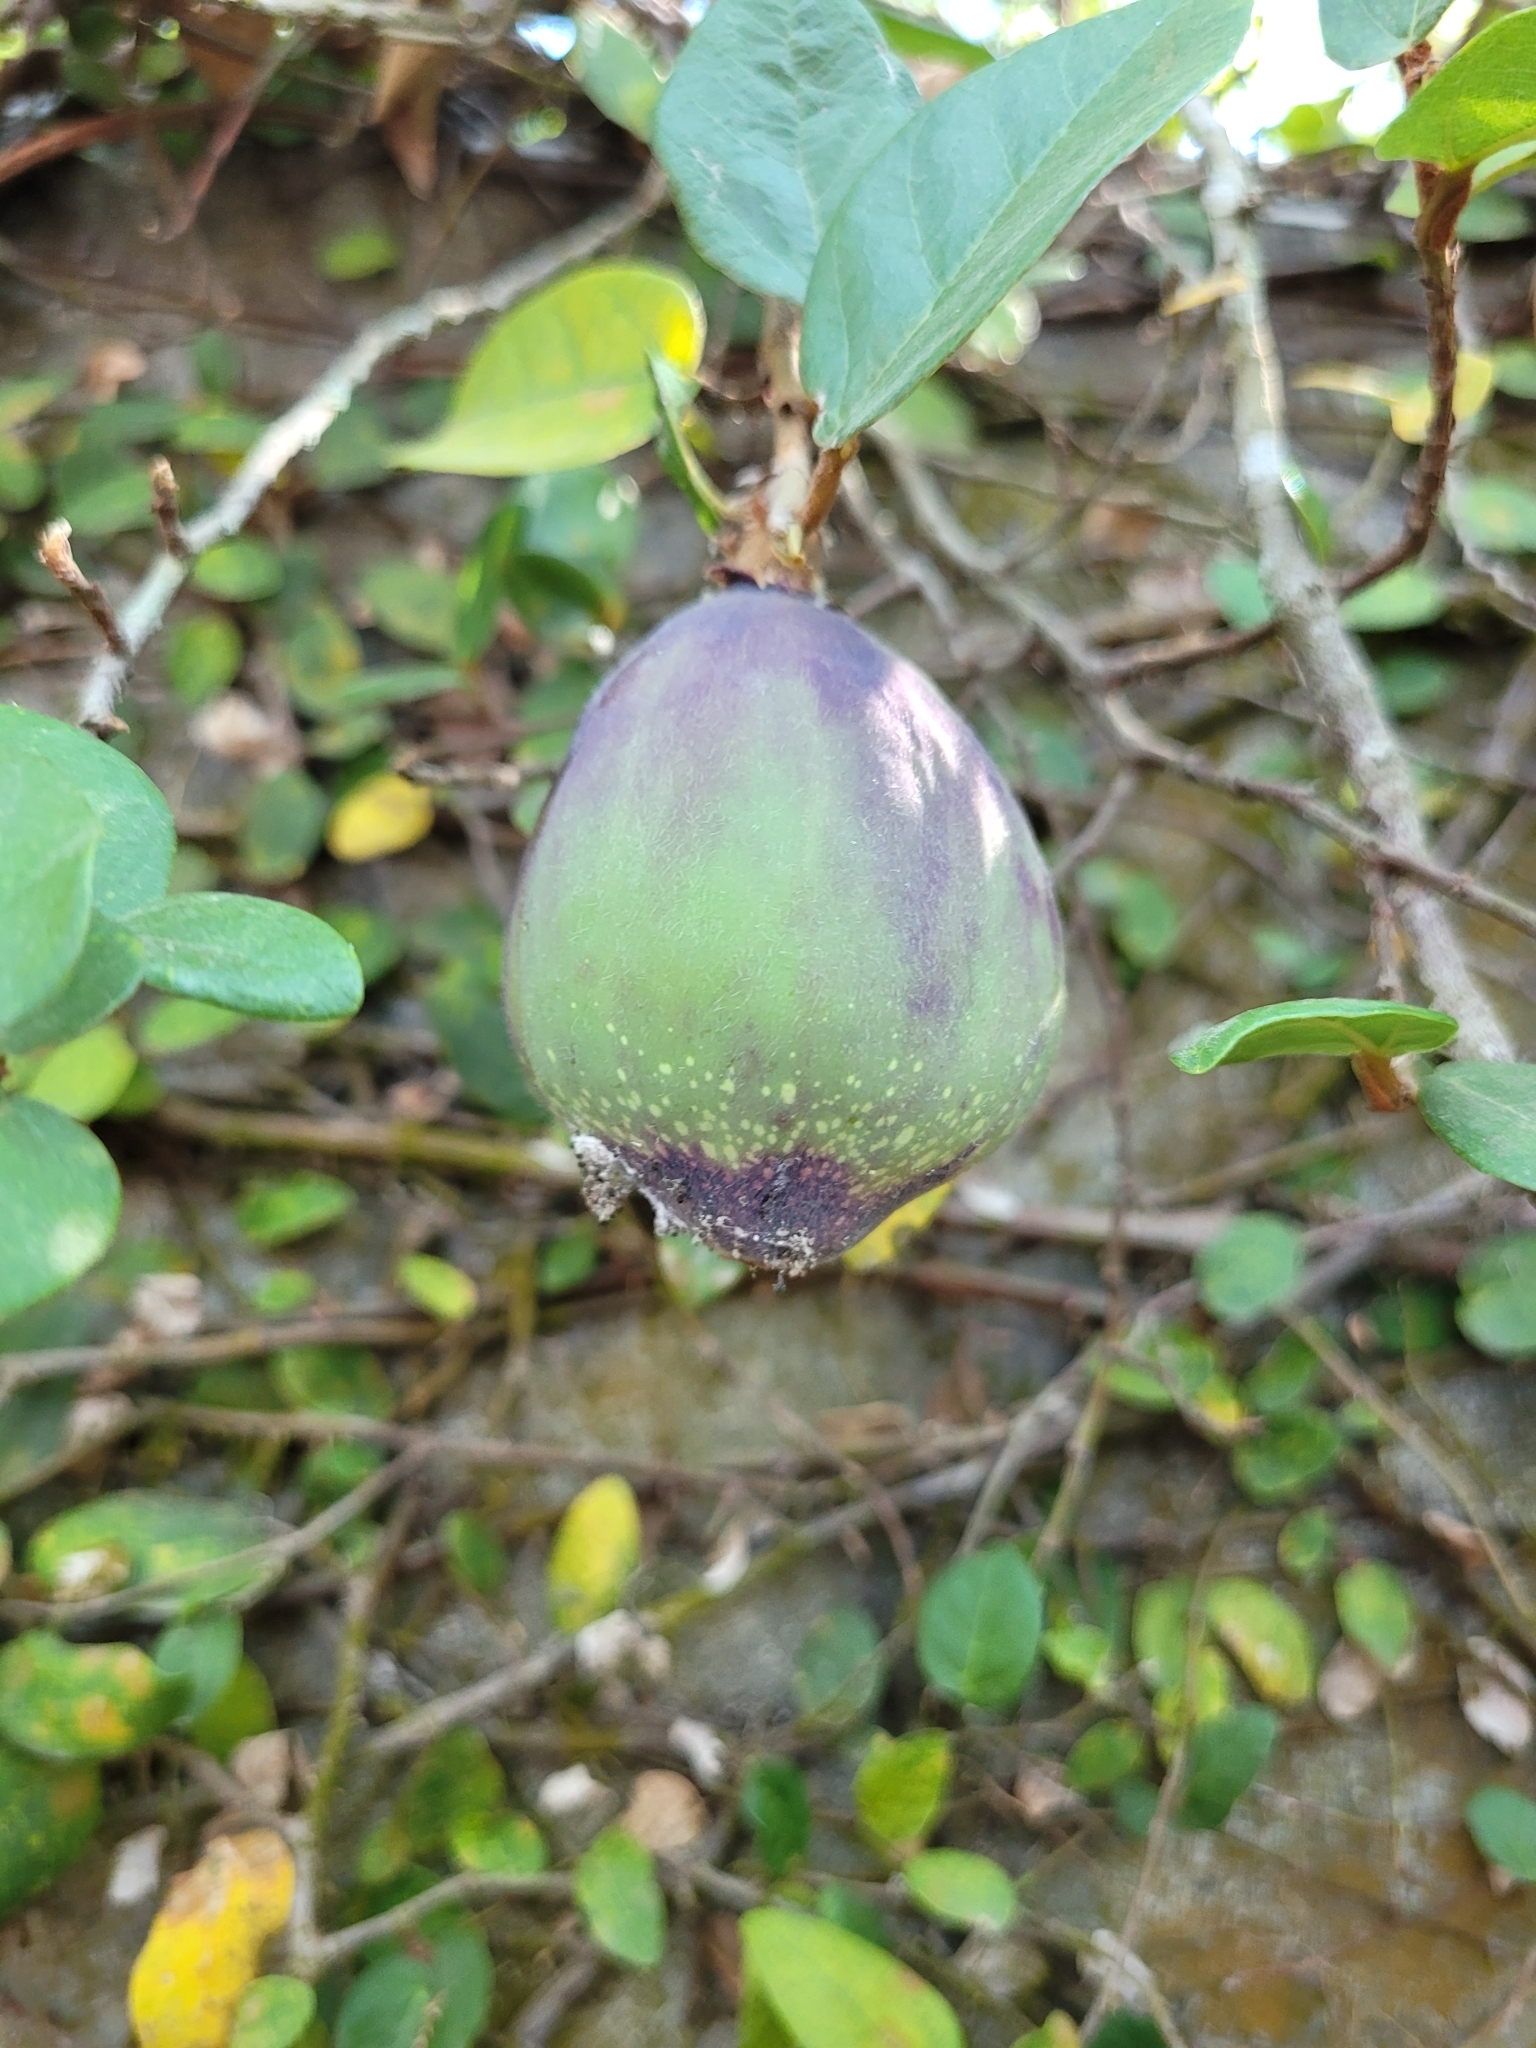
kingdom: Plantae
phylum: Tracheophyta
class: Magnoliopsida
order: Rosales
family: Moraceae
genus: Ficus
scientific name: Ficus pumila
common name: Climbingfig
